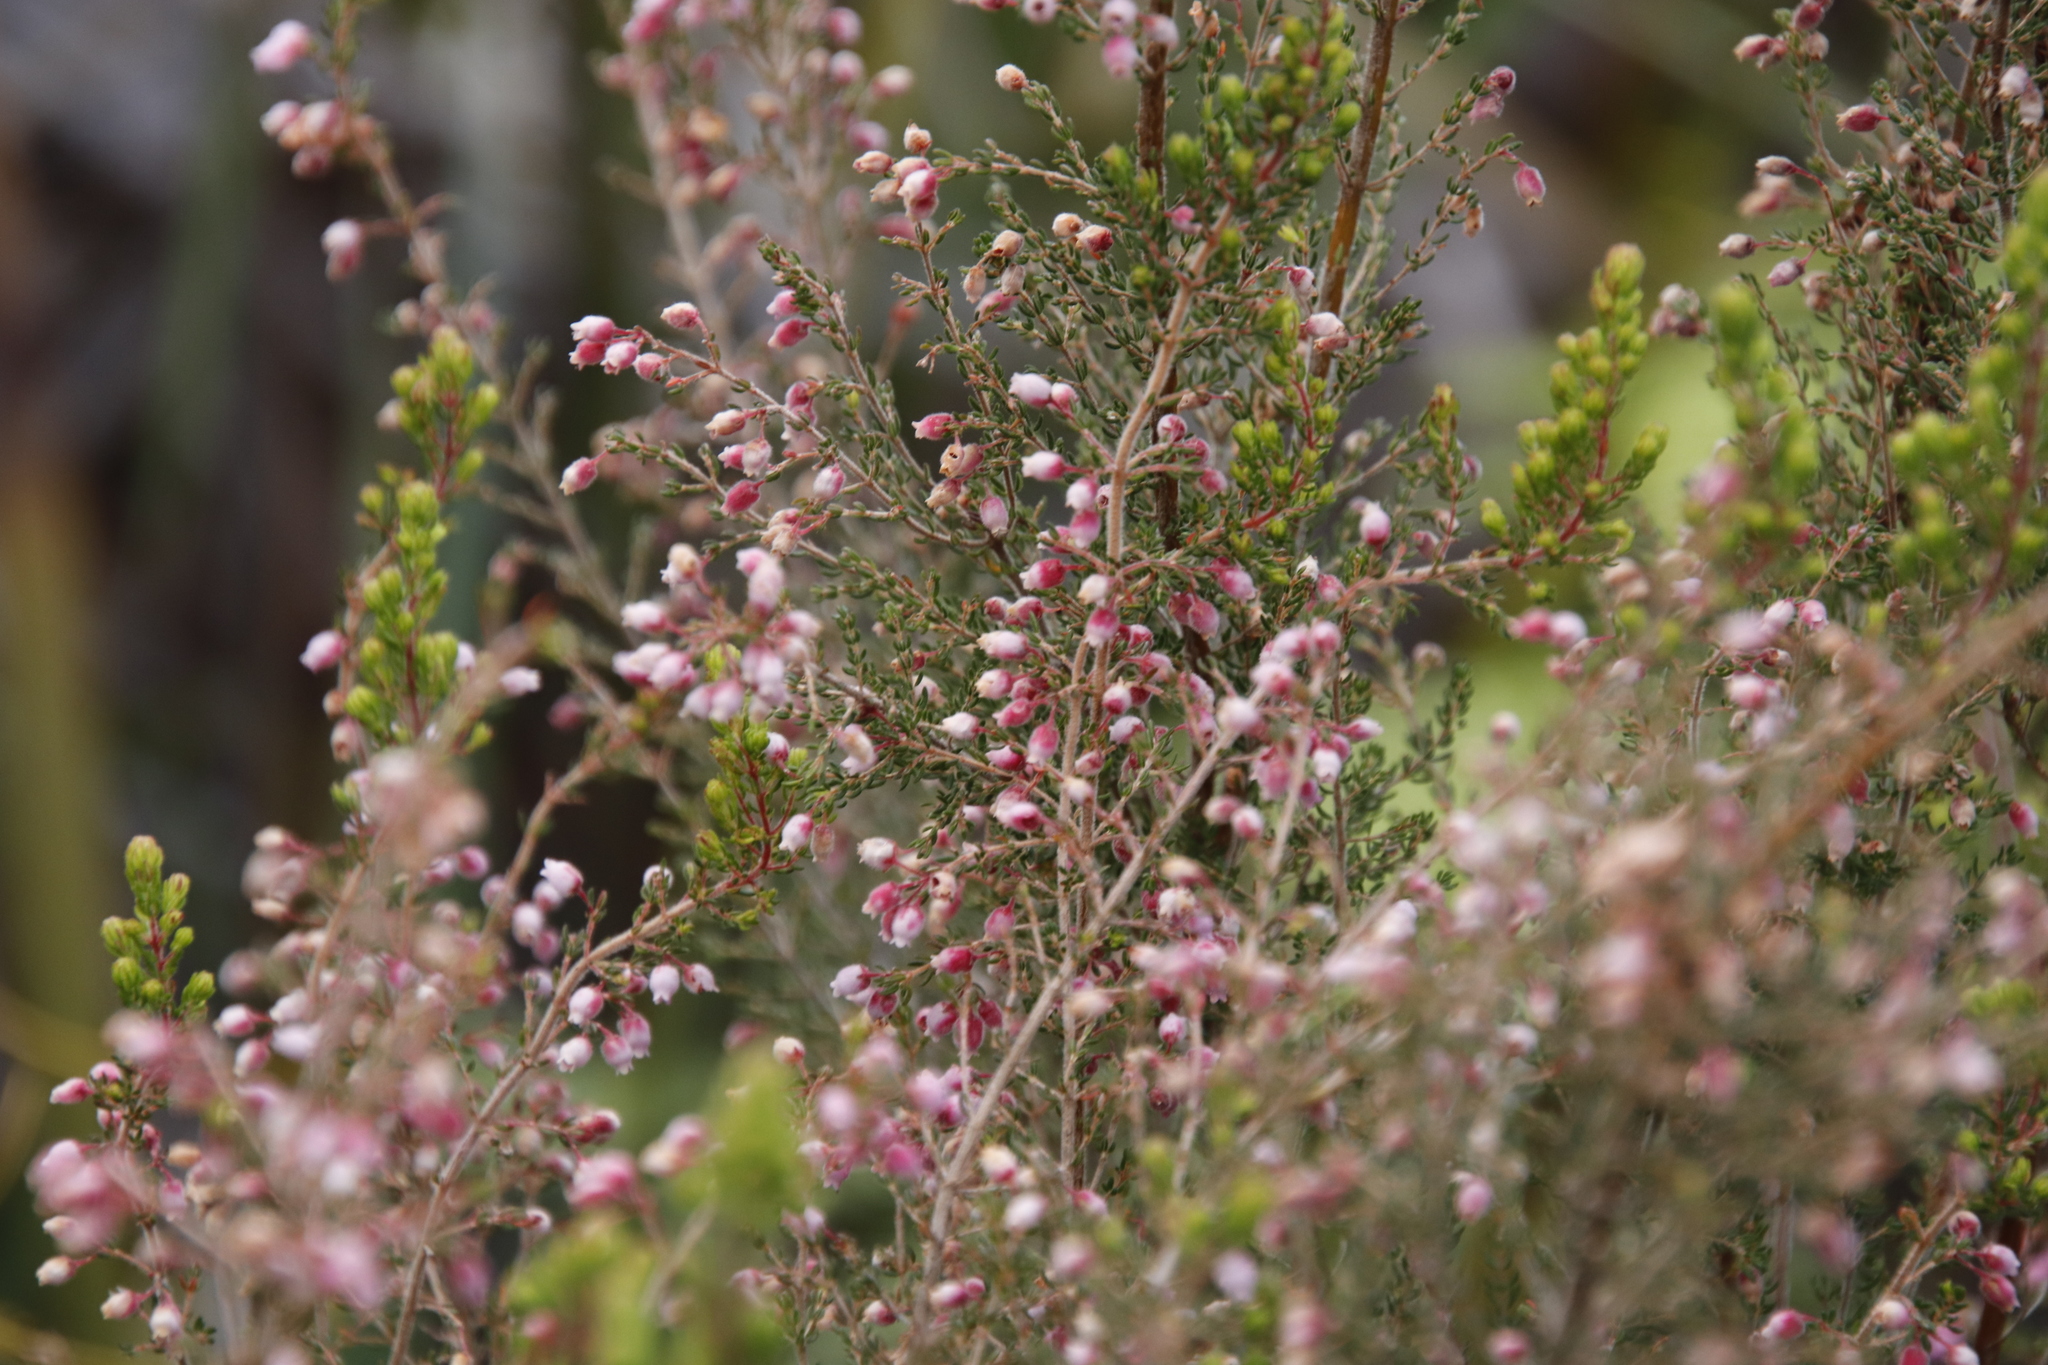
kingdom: Plantae
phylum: Tracheophyta
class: Magnoliopsida
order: Ericales
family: Ericaceae
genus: Erica
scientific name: Erica hirtiflora
